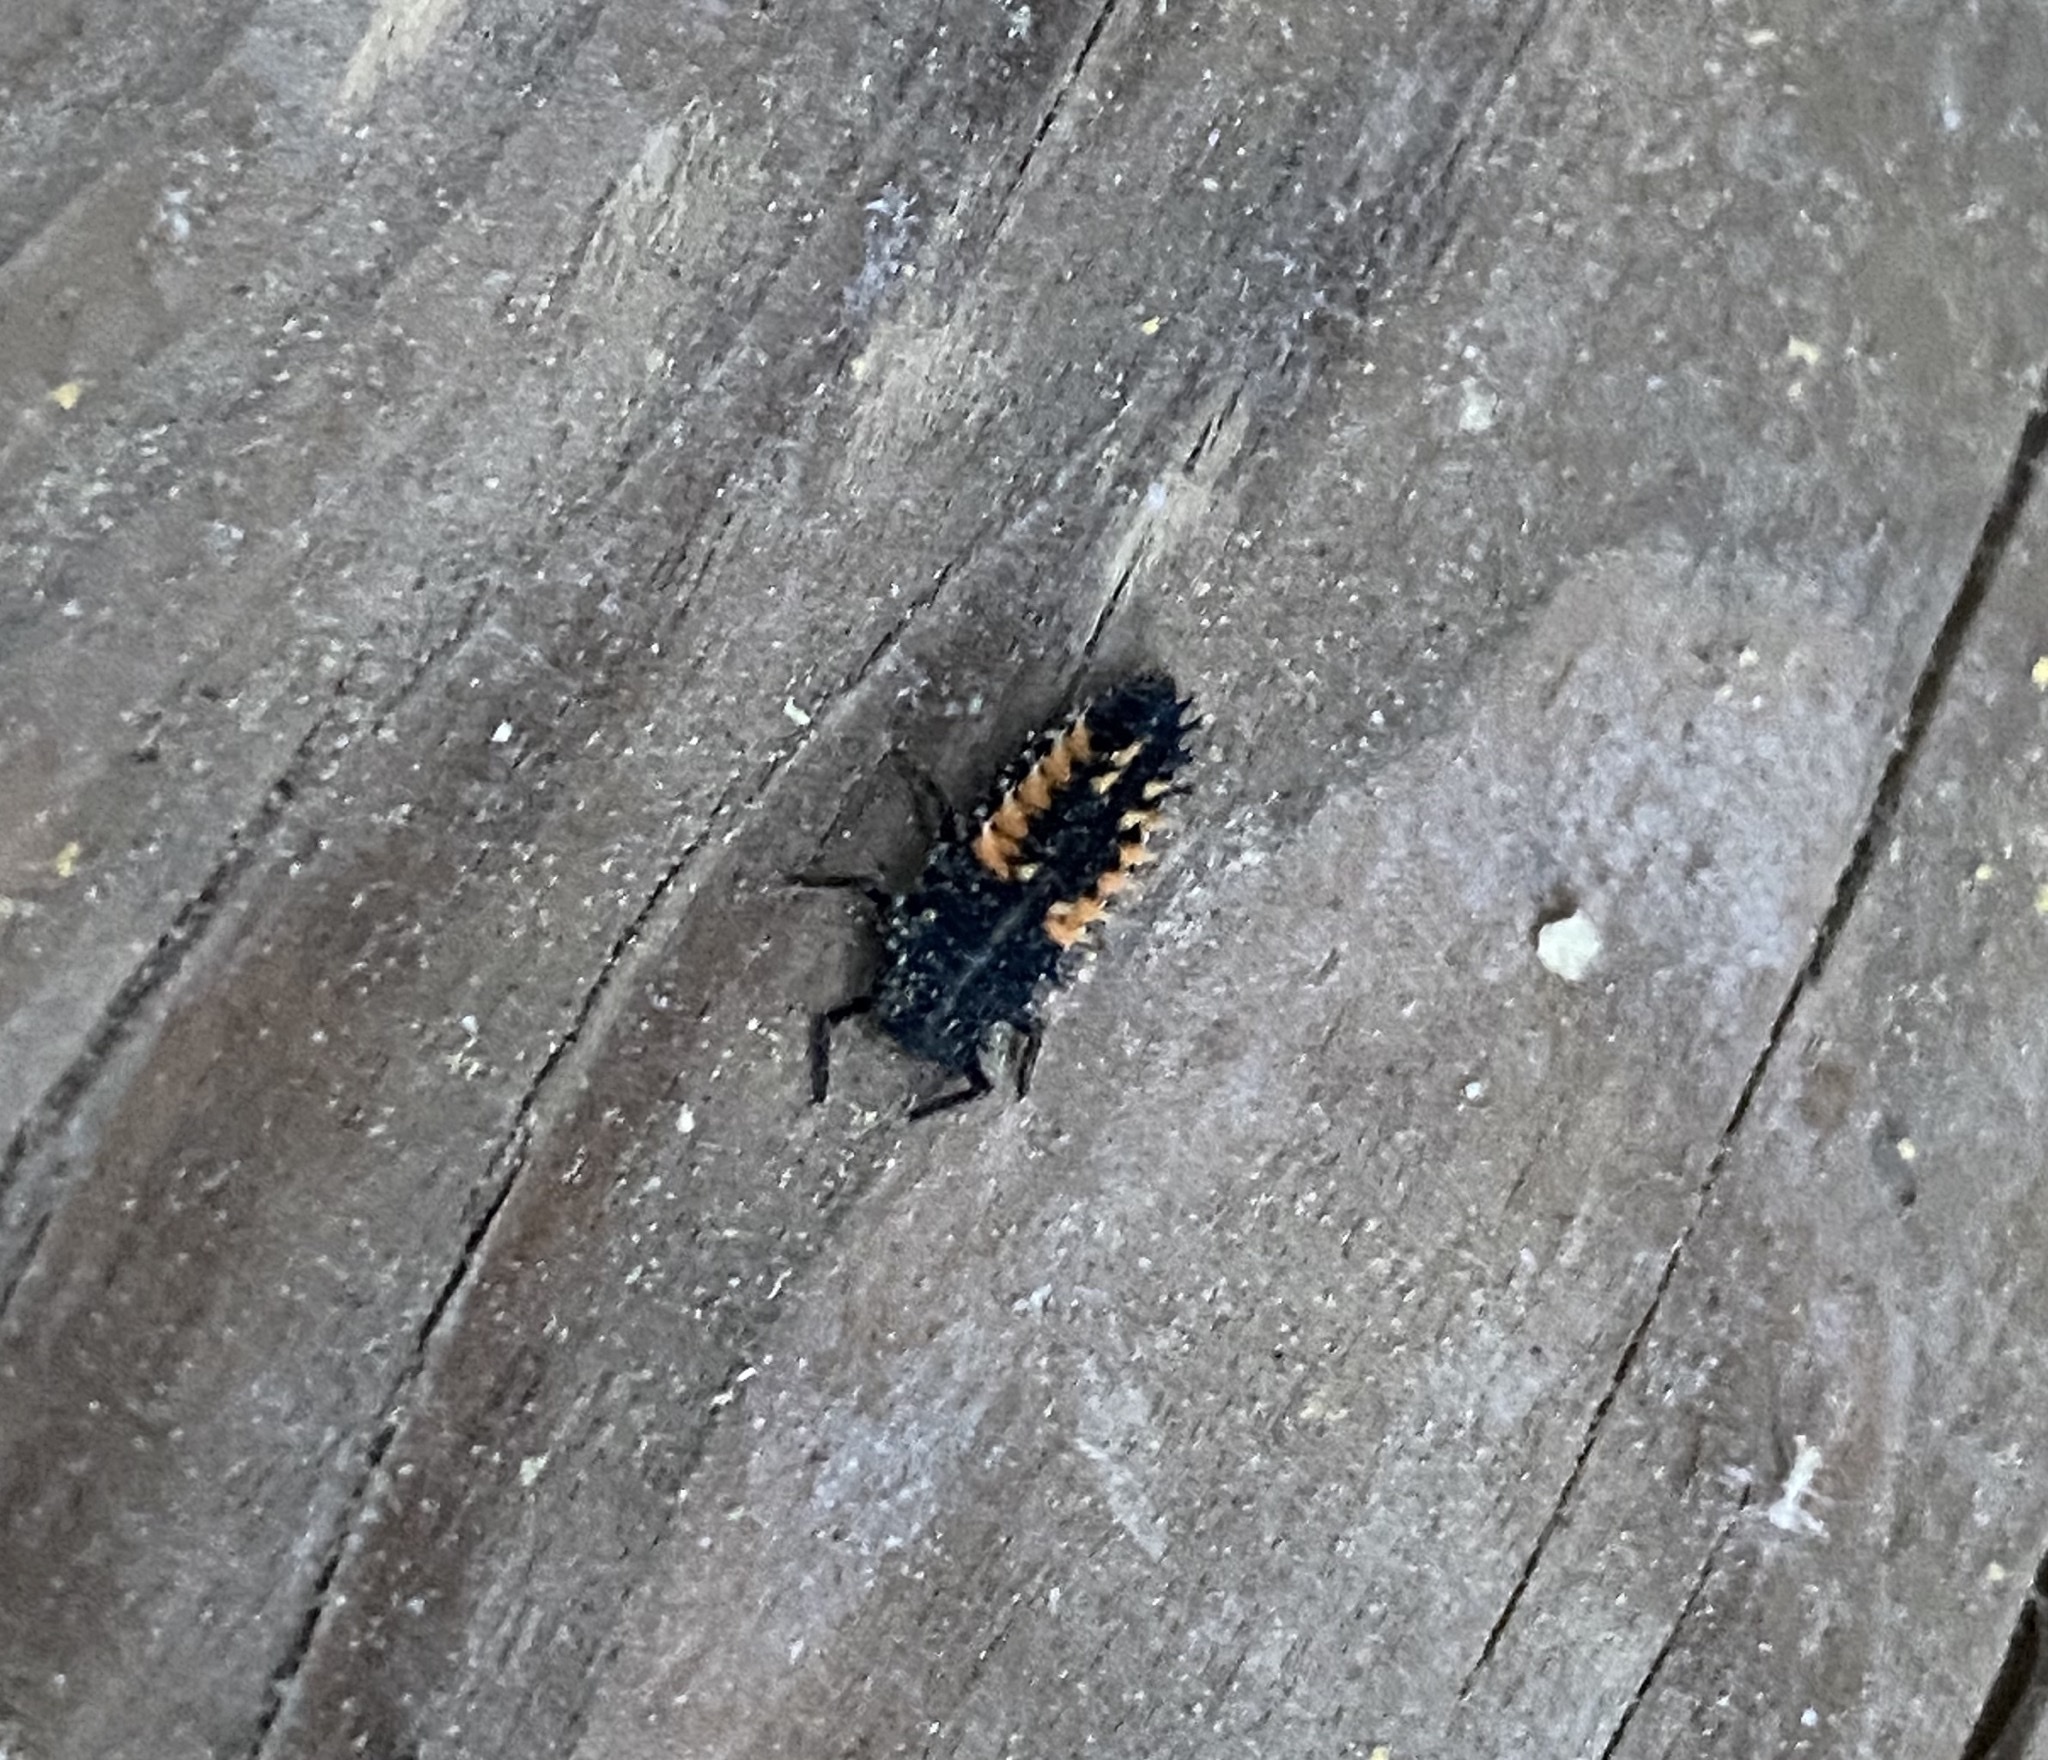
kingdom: Animalia
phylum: Arthropoda
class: Insecta
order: Coleoptera
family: Coccinellidae
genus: Harmonia
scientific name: Harmonia axyridis
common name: Harlequin ladybird
